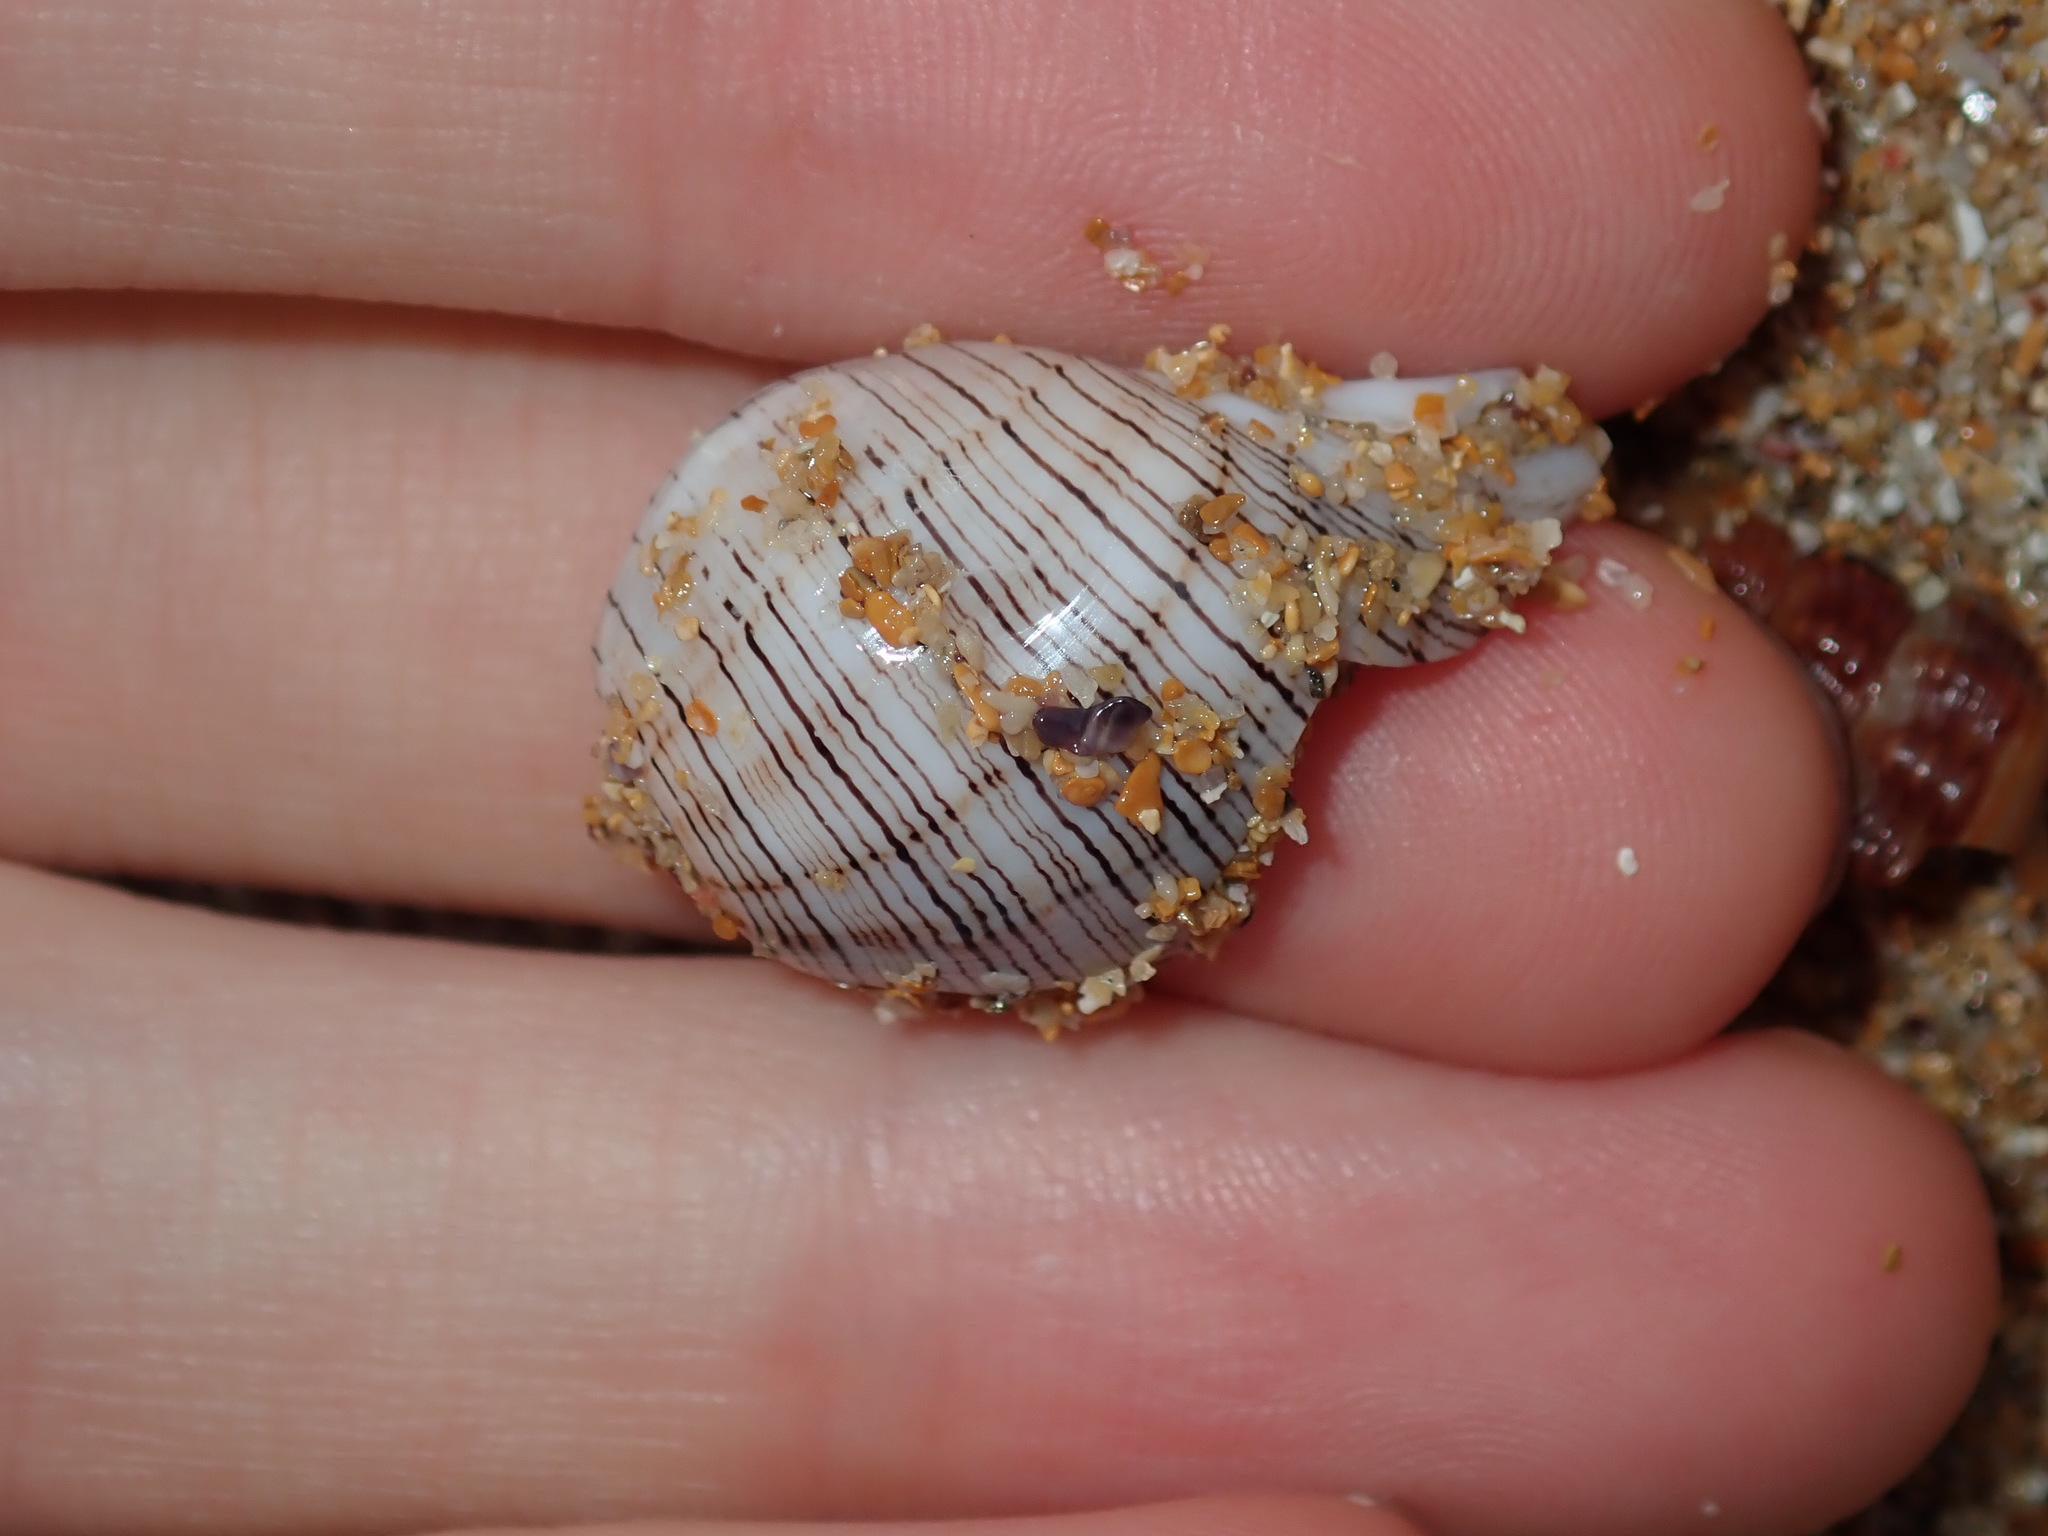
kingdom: Animalia
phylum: Mollusca
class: Gastropoda
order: Cephalaspidea
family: Aplustridae
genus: Hydatina
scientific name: Hydatina physis
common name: Brown-line paperbubble
